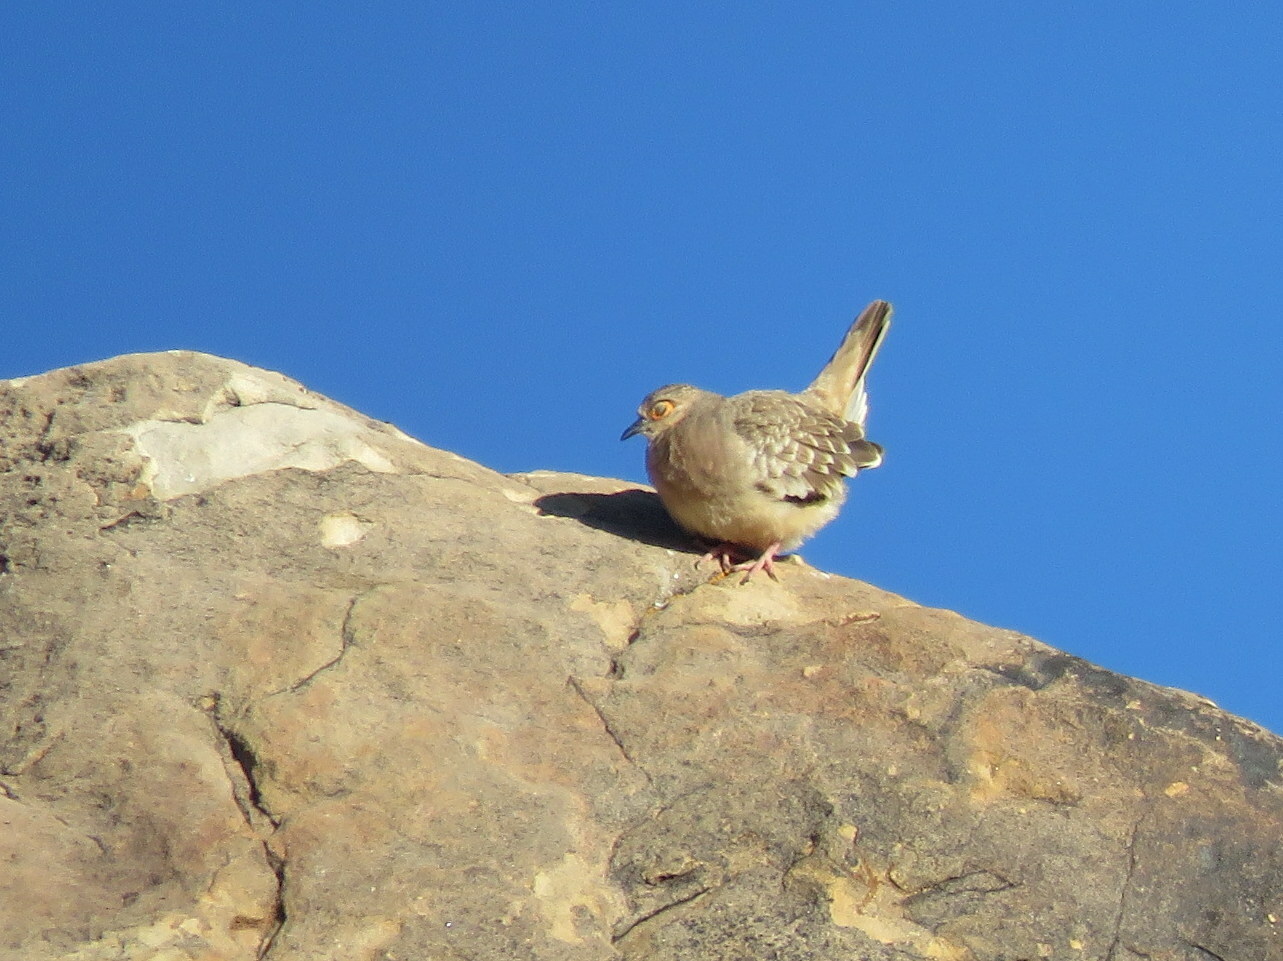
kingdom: Animalia
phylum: Chordata
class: Aves
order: Columbiformes
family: Columbidae
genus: Metriopelia
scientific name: Metriopelia ceciliae
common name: Bare-faced ground dove
